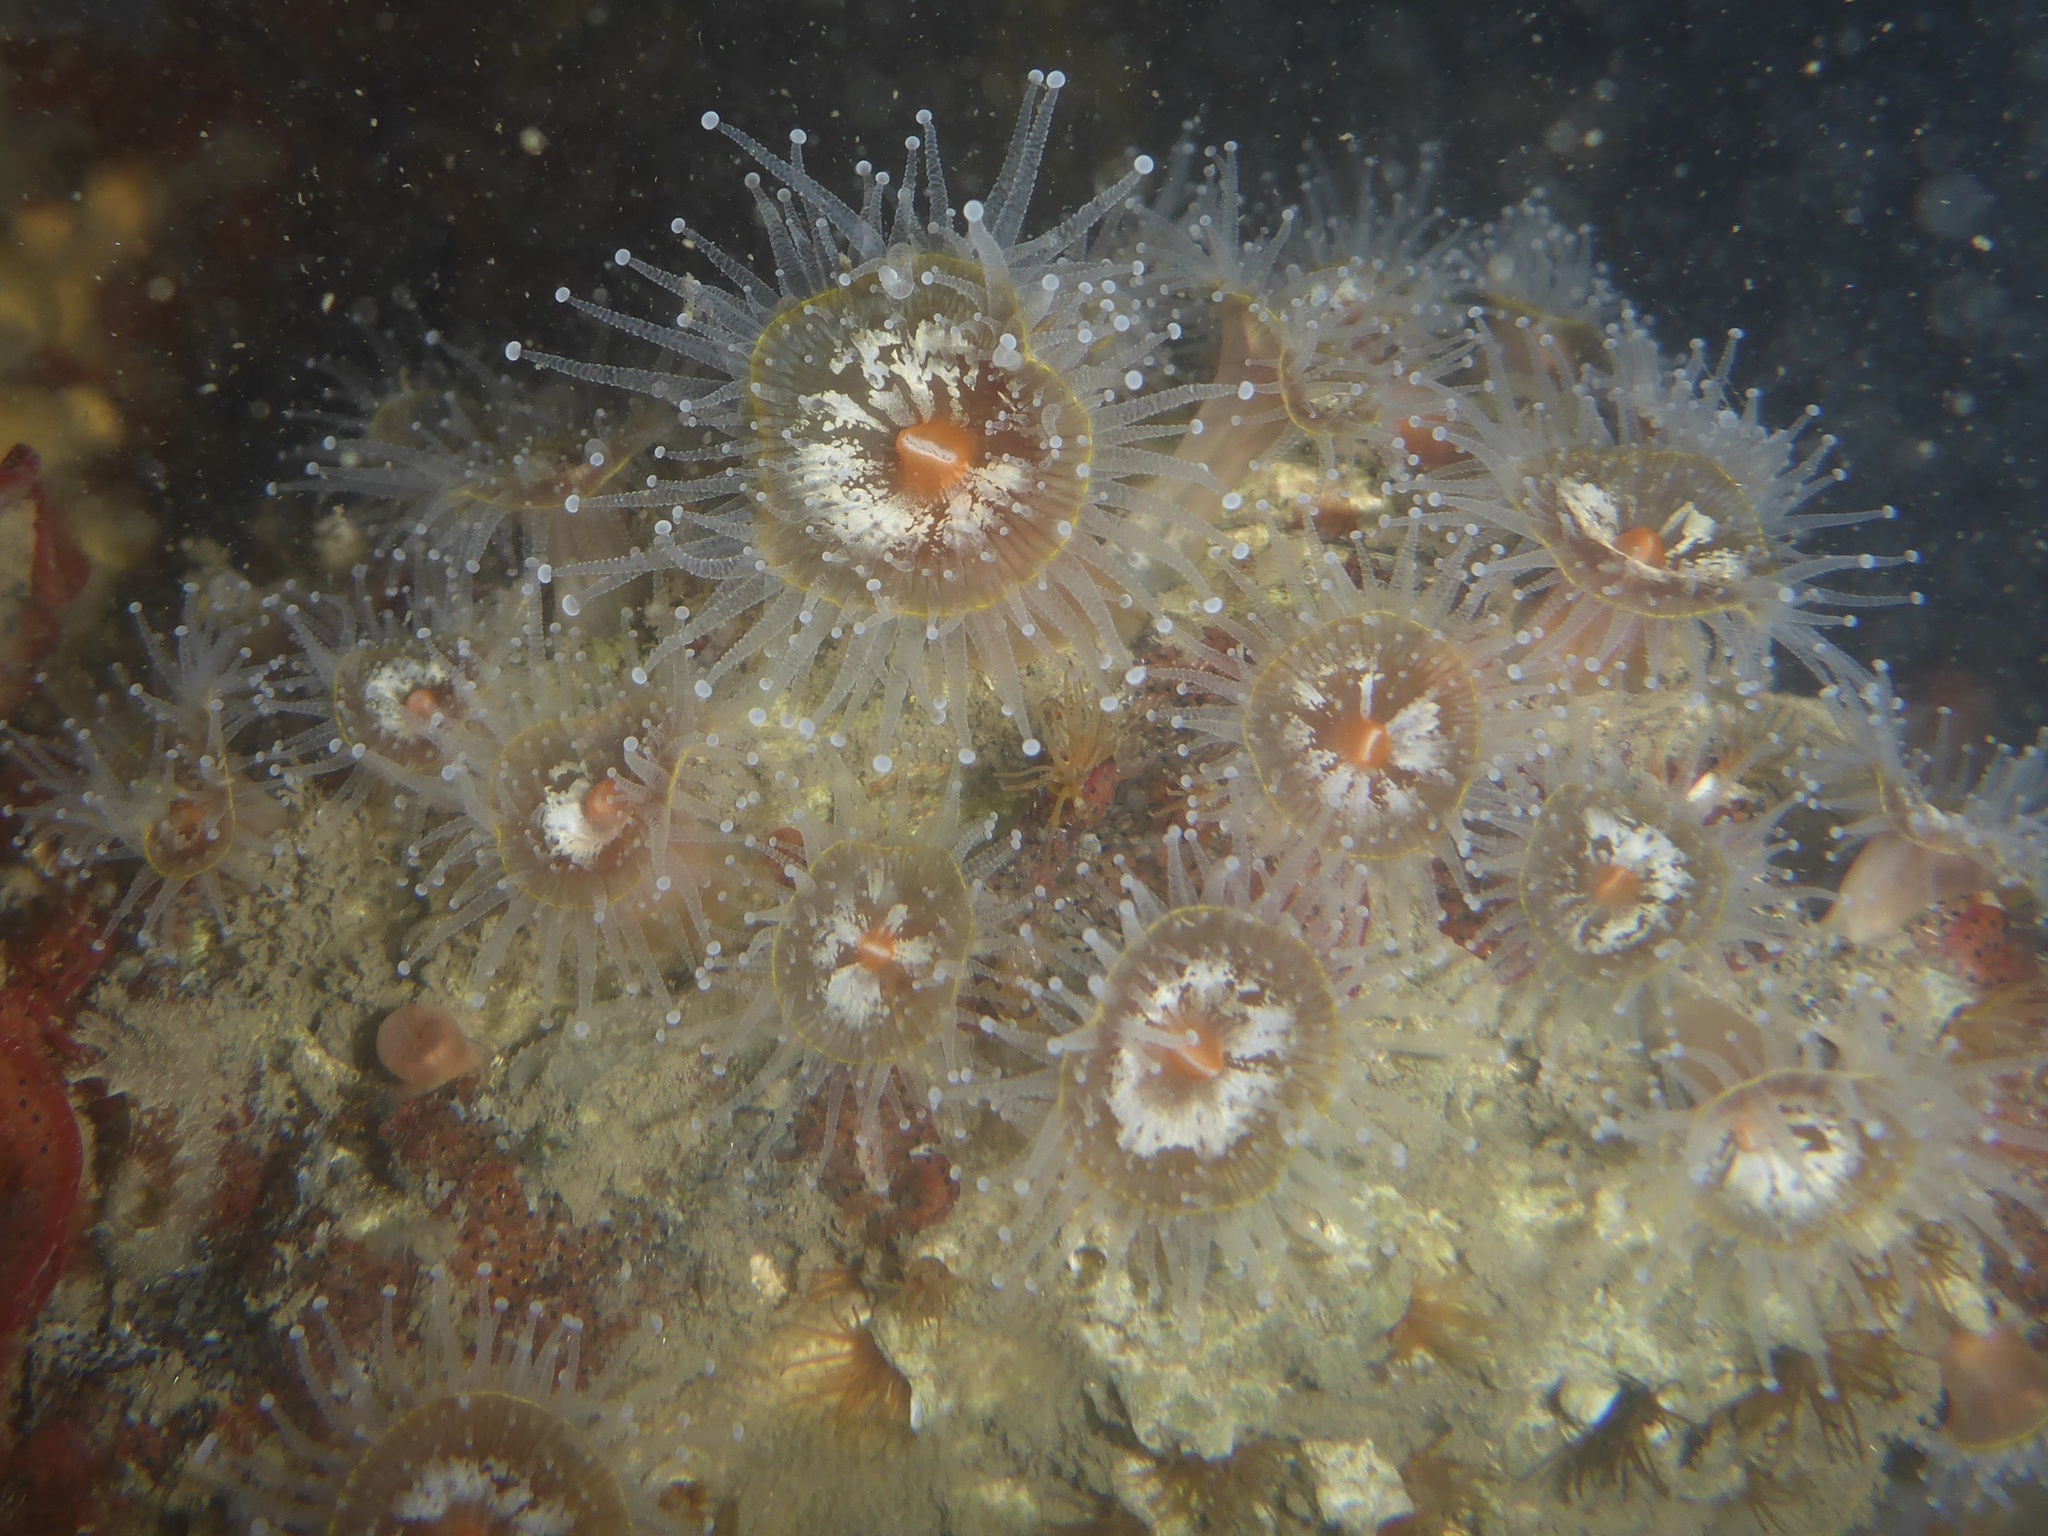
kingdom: Animalia
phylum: Cnidaria
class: Anthozoa
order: Corallimorpharia
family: Corallimorphidae
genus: Corynactis
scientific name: Corynactis californica
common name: Strawberry corallimorpharian
